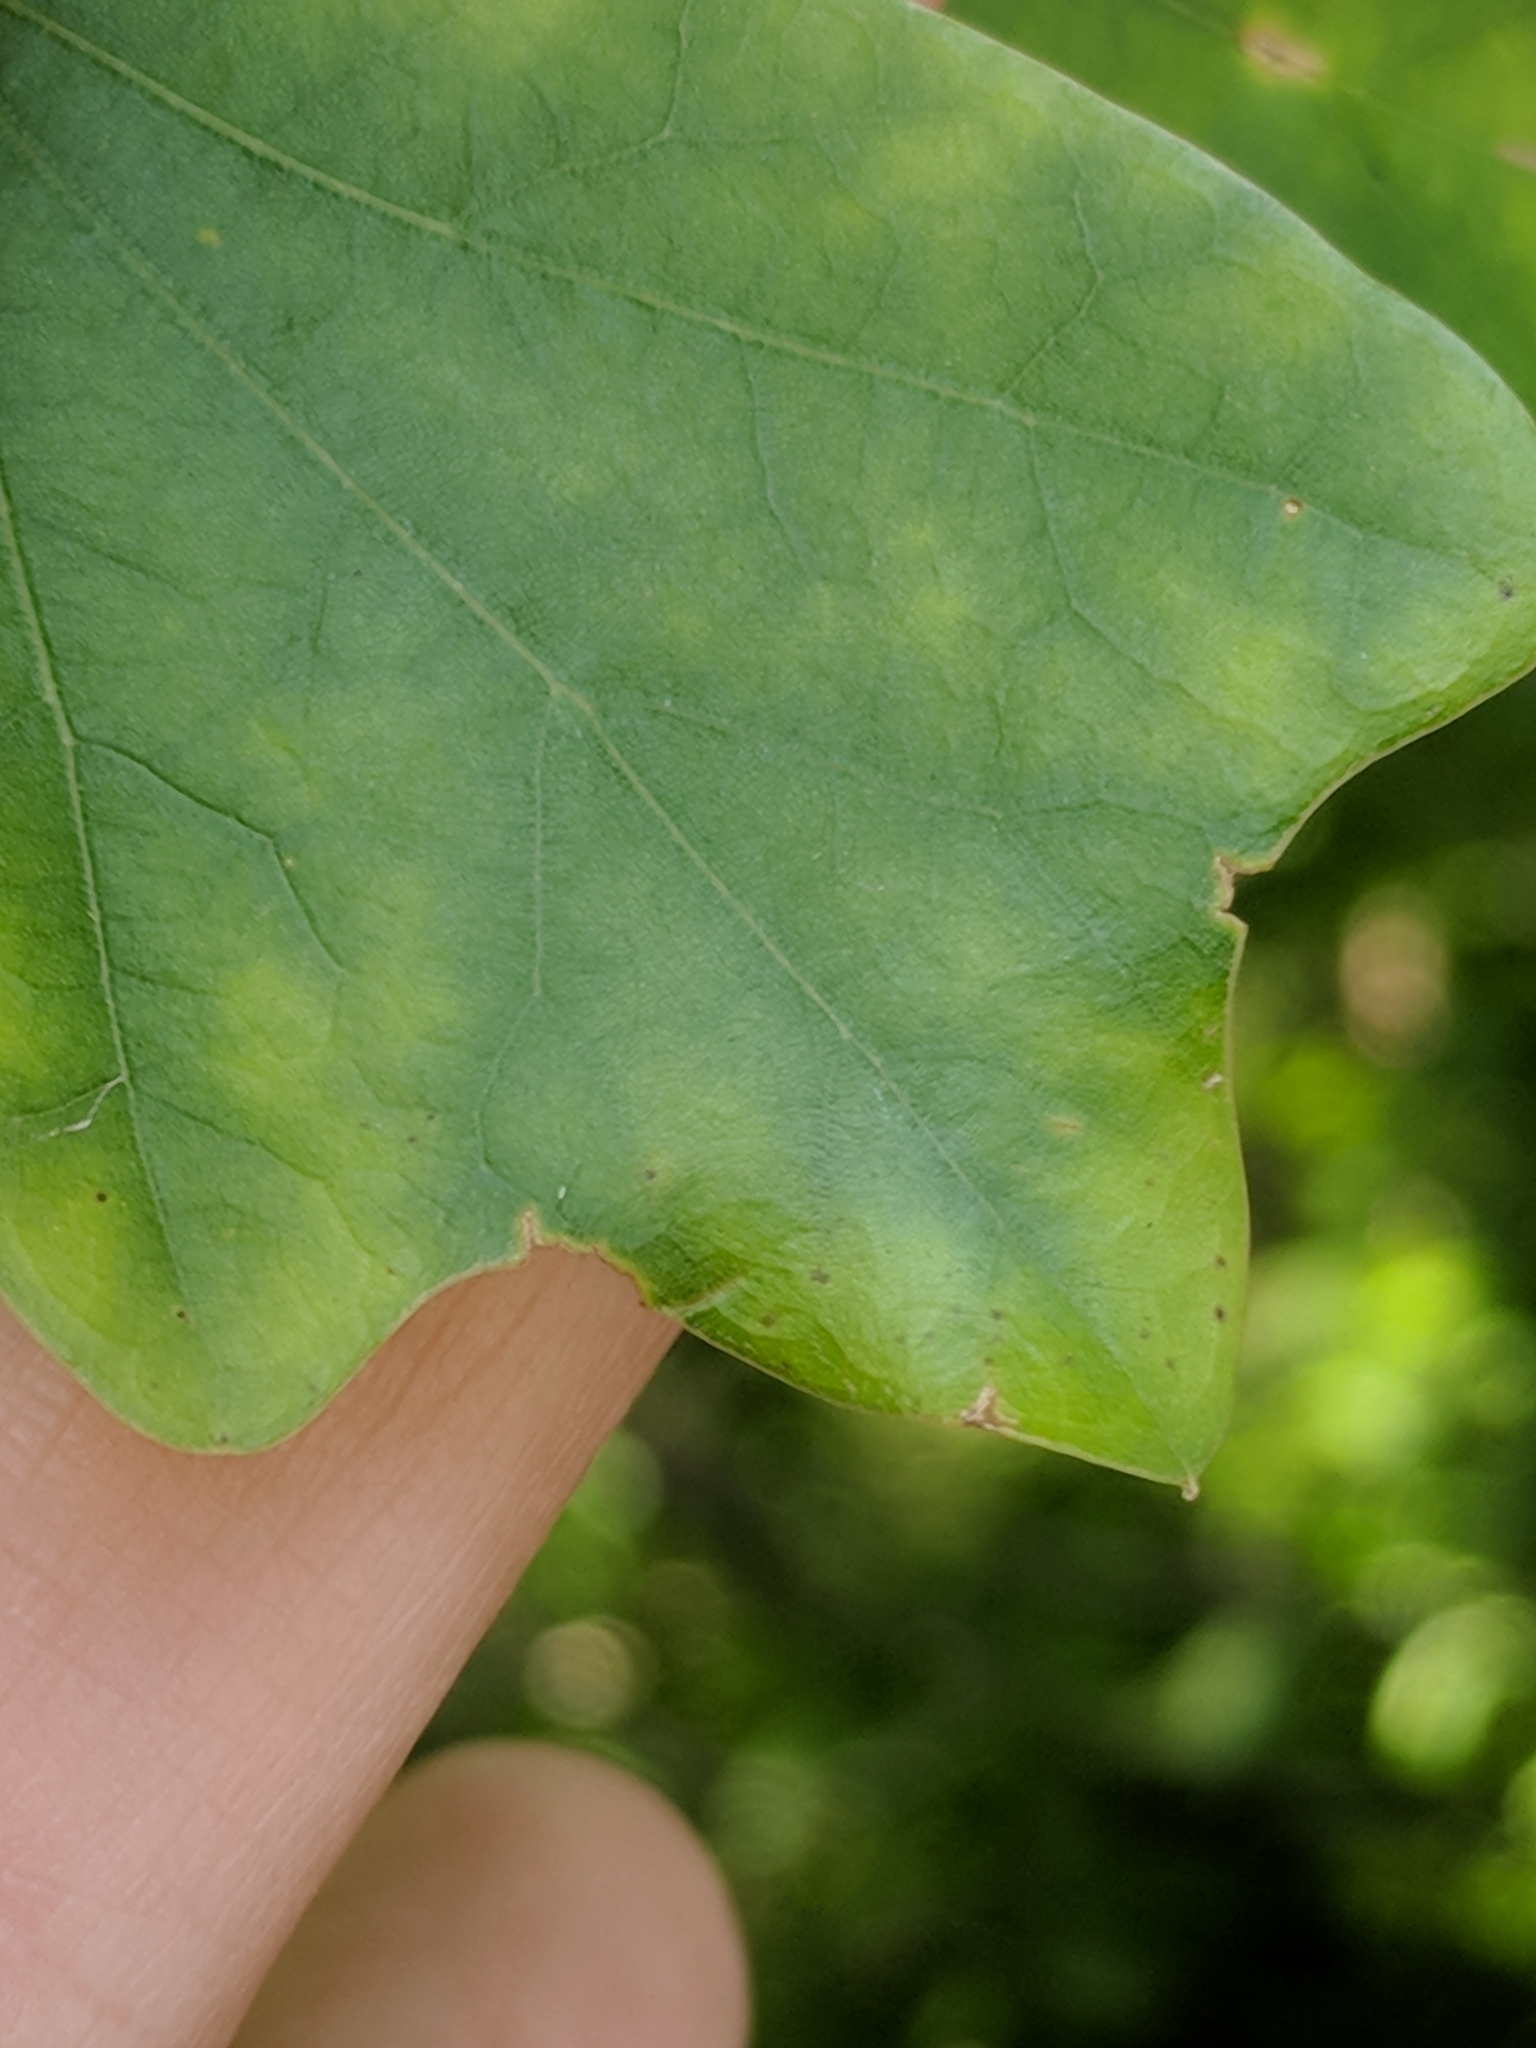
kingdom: Plantae
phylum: Tracheophyta
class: Magnoliopsida
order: Fagales
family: Fagaceae
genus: Quercus
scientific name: Quercus nigra
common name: Water oak
